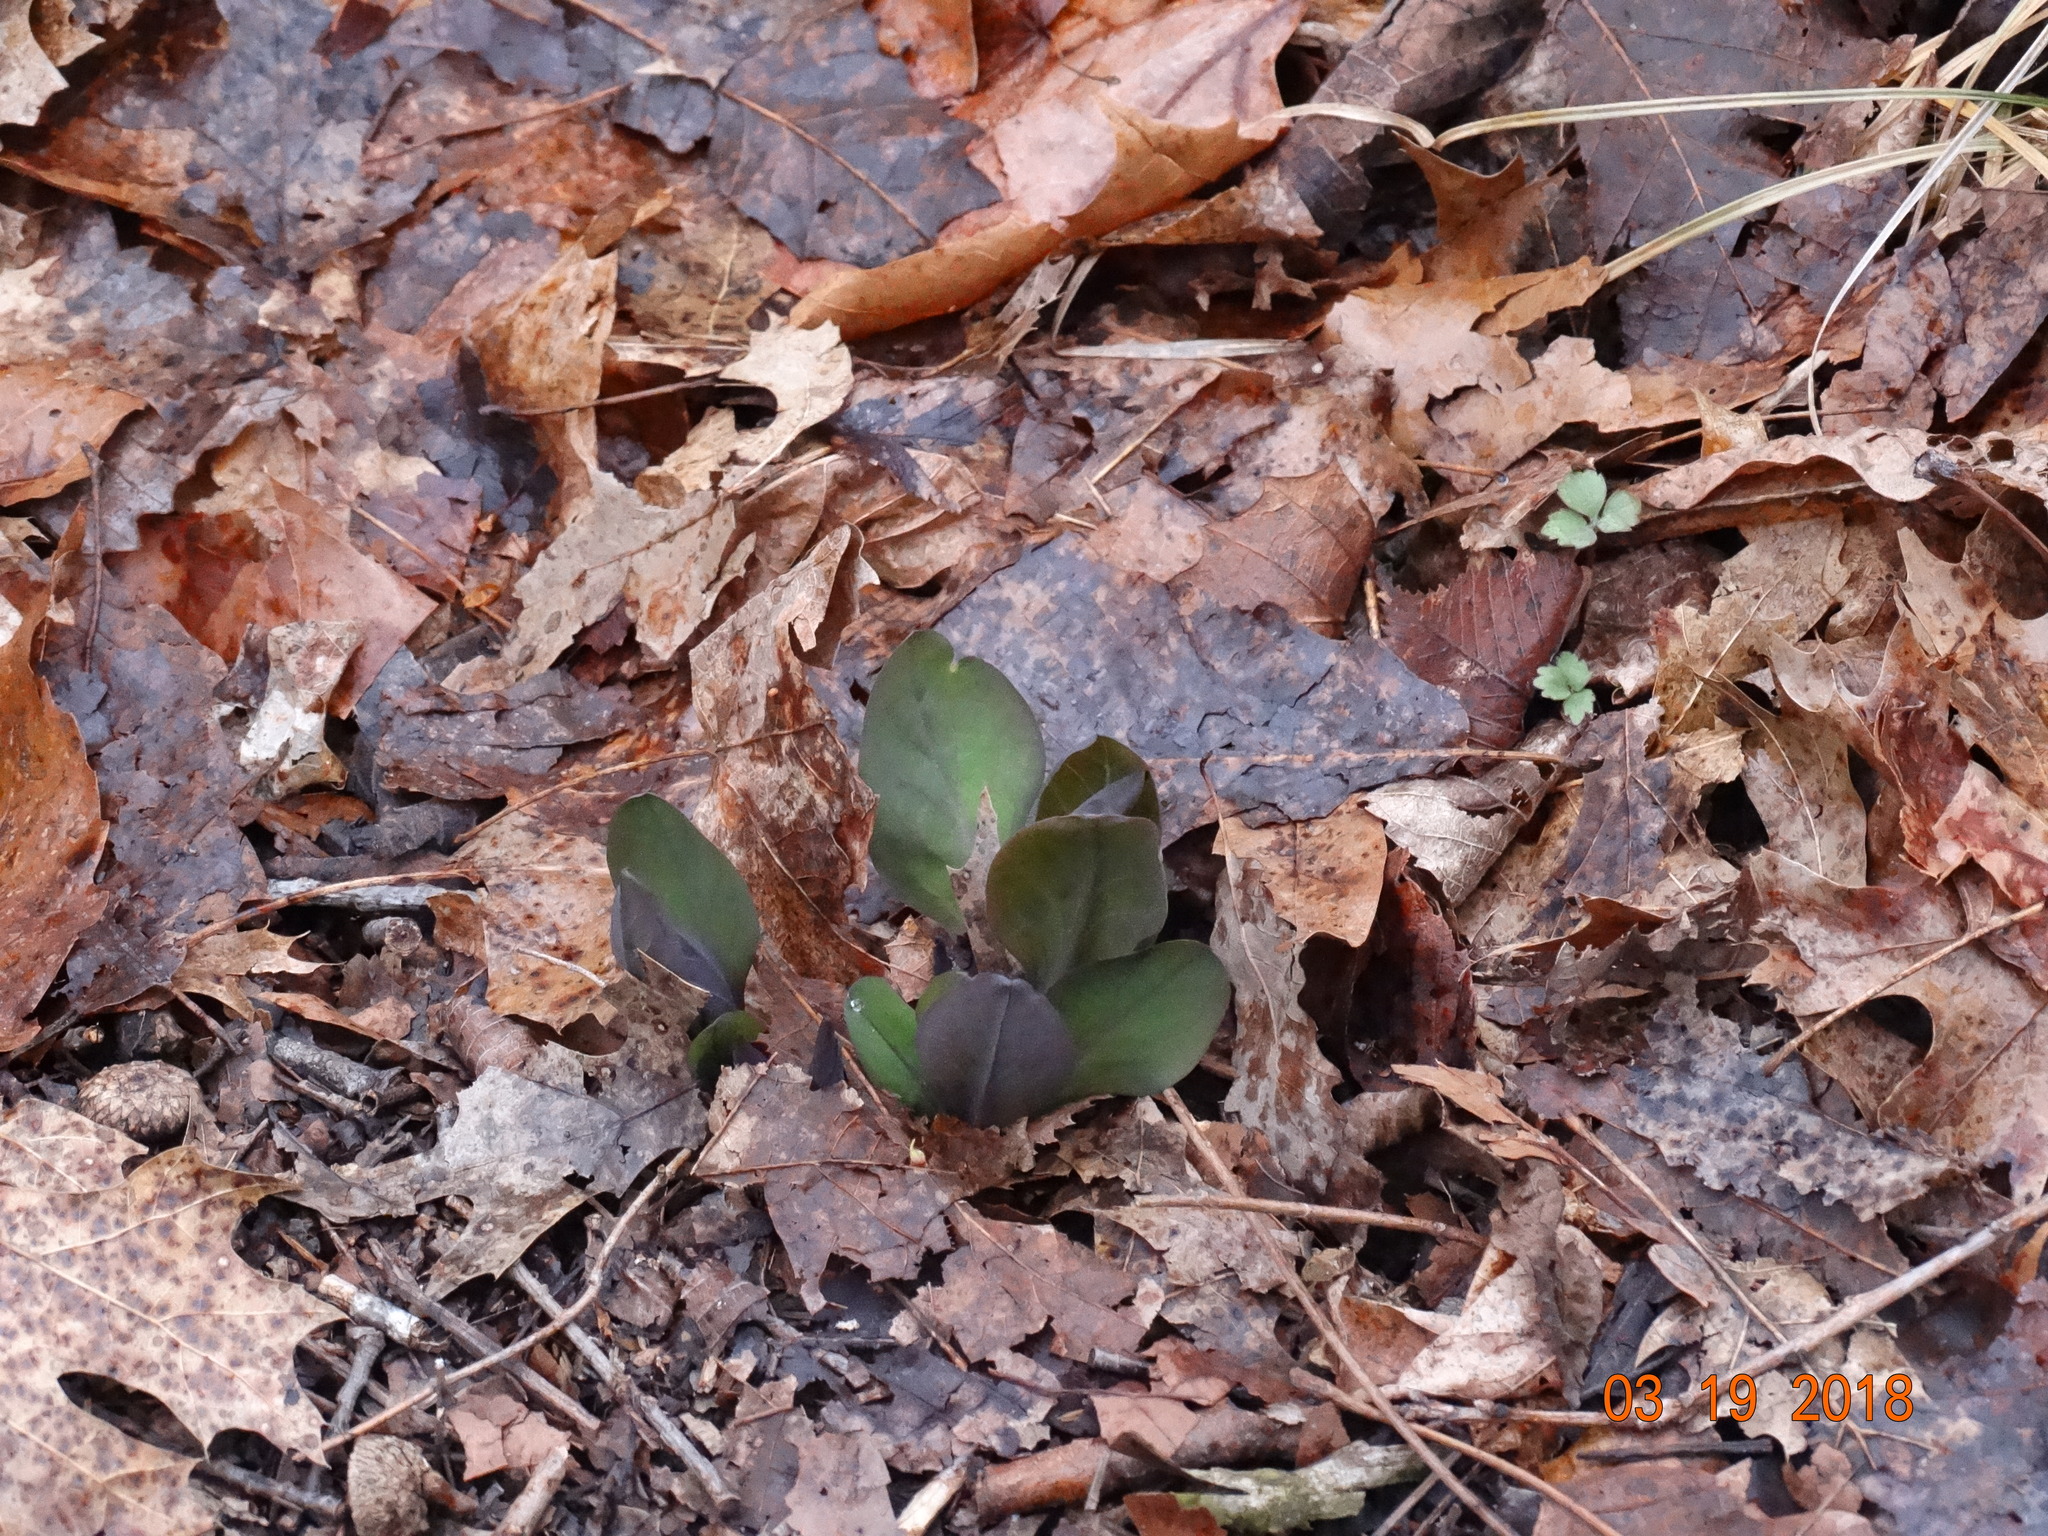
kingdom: Plantae
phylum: Tracheophyta
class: Magnoliopsida
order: Boraginales
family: Boraginaceae
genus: Mertensia
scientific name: Mertensia virginica
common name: Virginia bluebells
